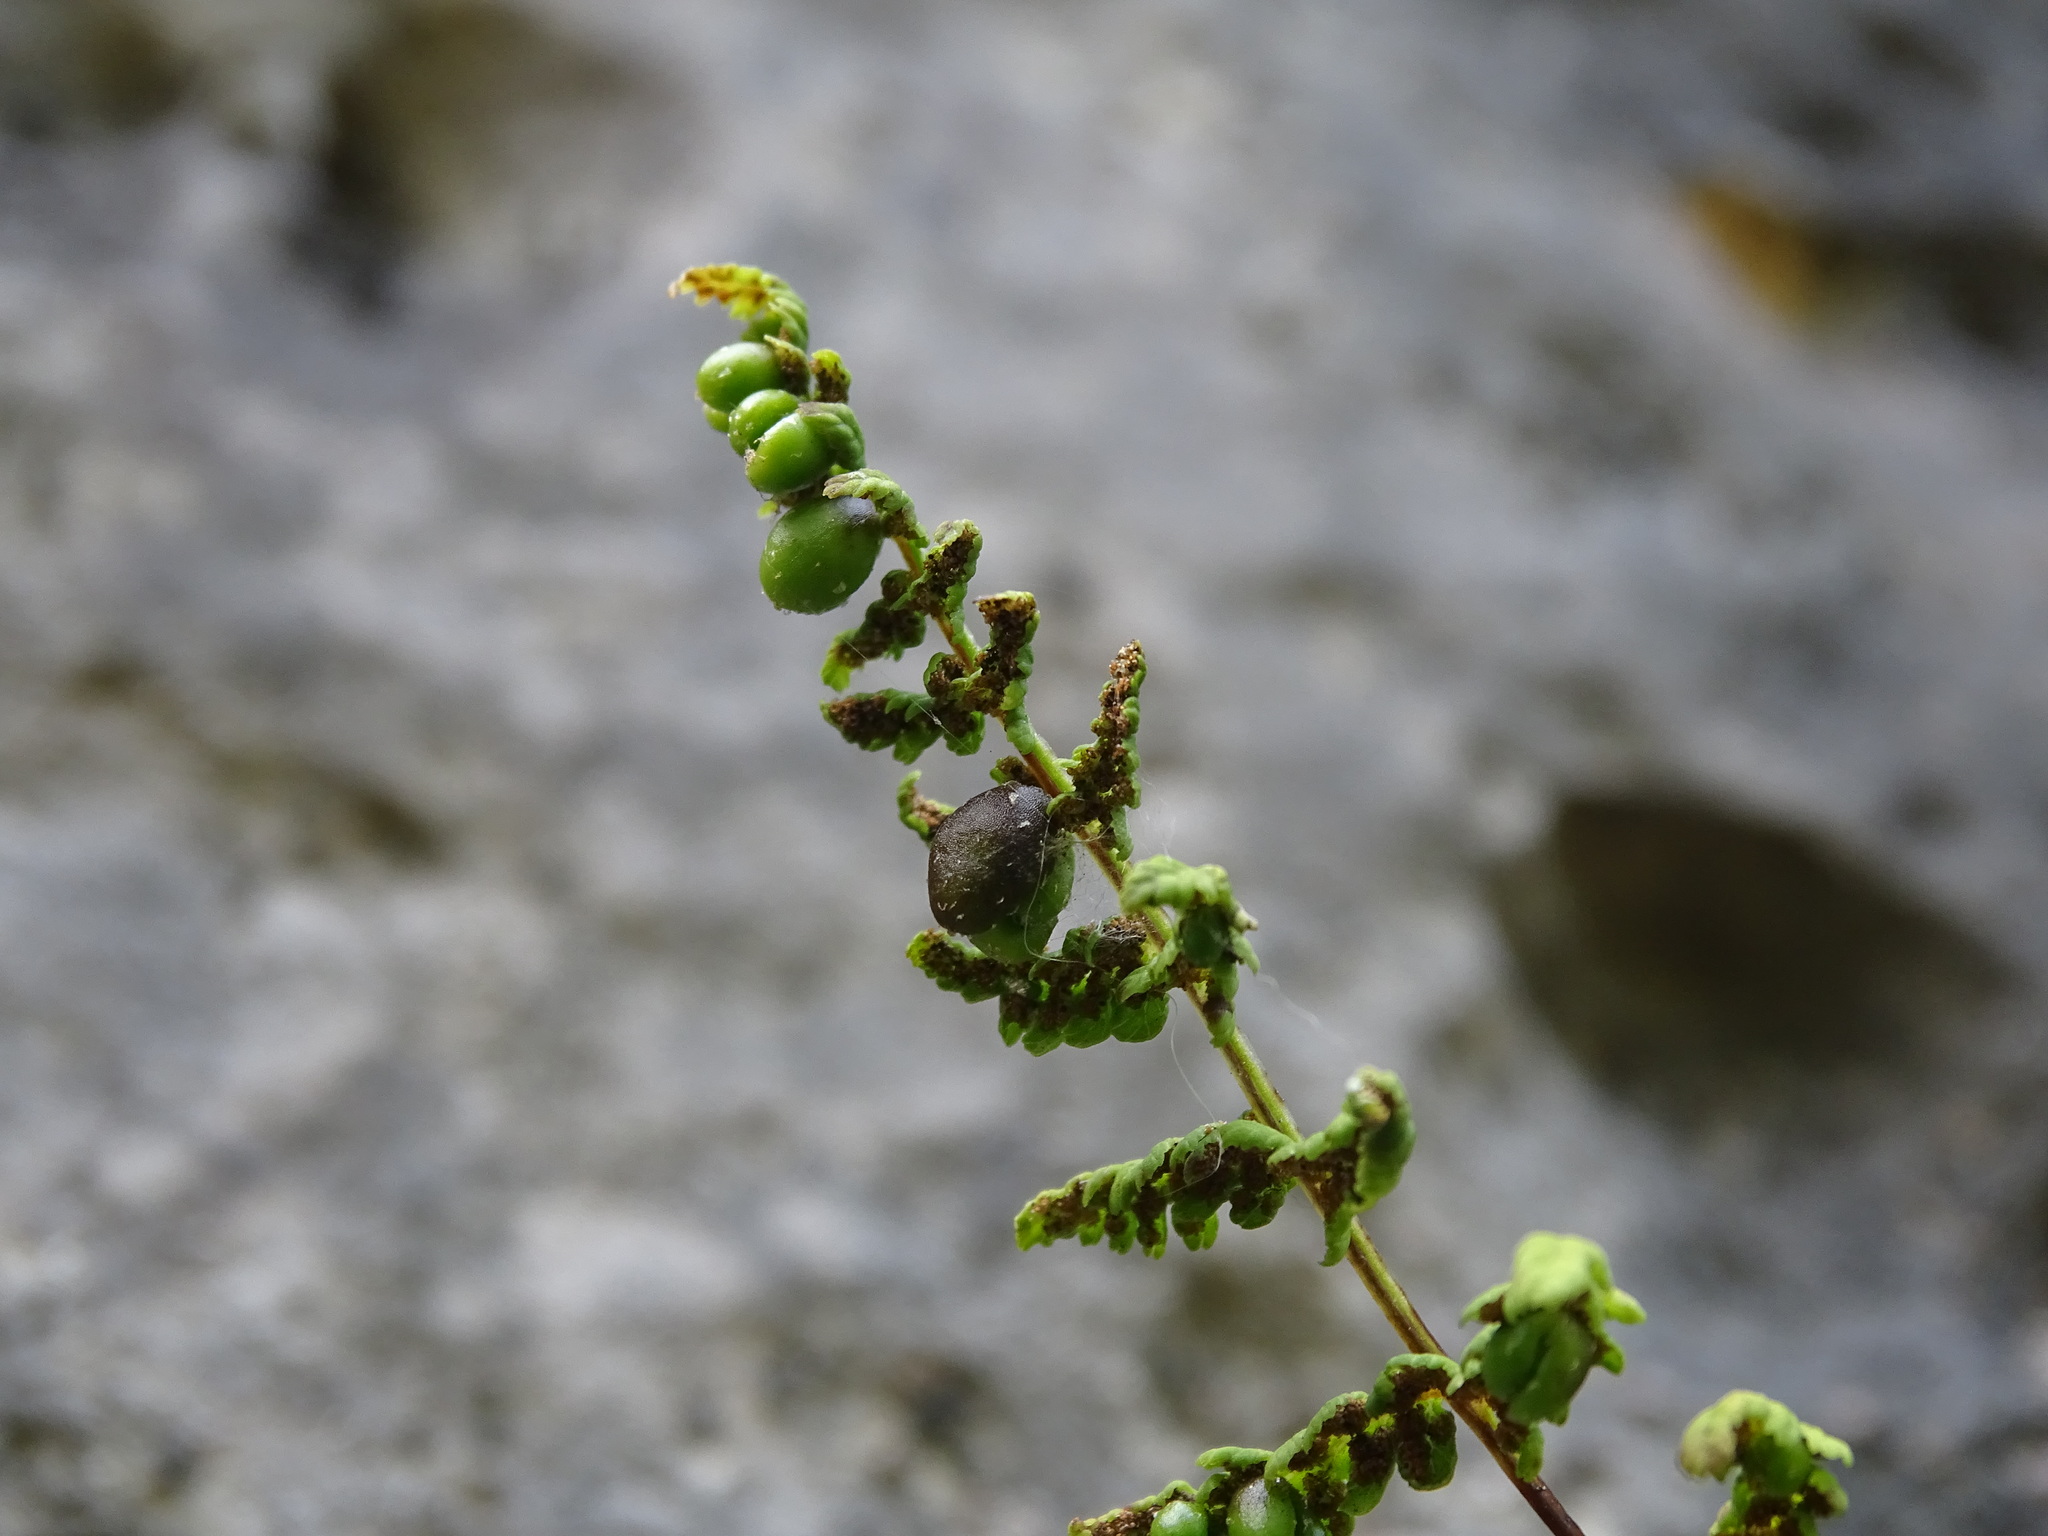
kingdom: Plantae
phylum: Tracheophyta
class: Polypodiopsida
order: Polypodiales
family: Cystopteridaceae
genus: Cystopteris
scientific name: Cystopteris bulbifera
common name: Bulblet bladder fern
